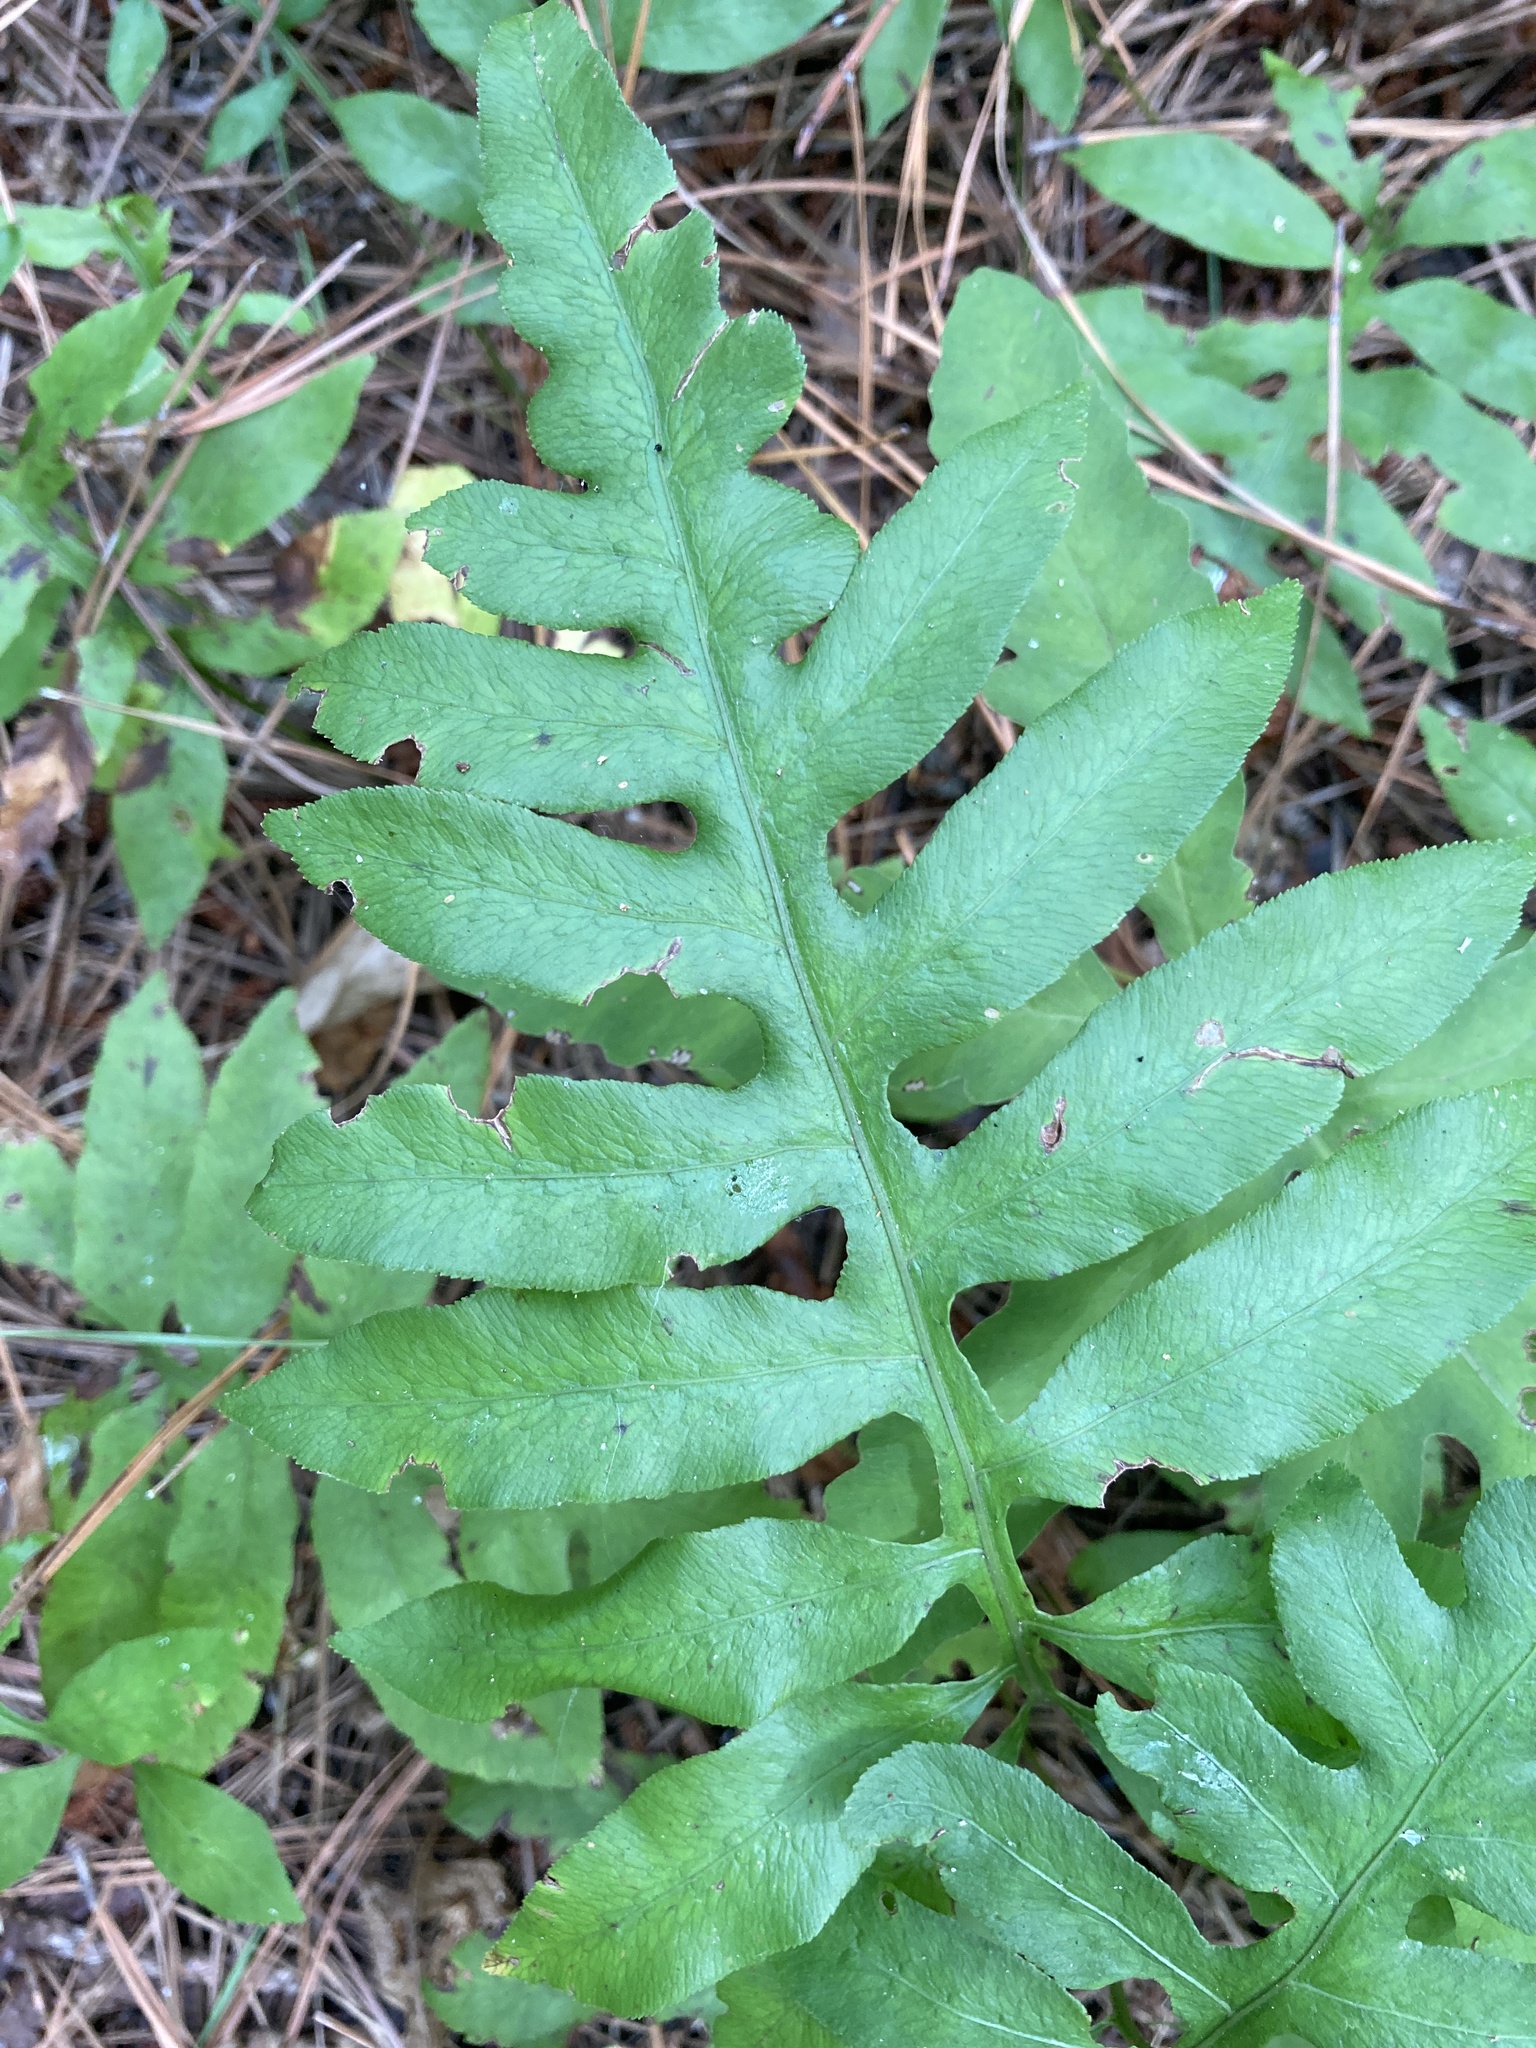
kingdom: Plantae
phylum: Tracheophyta
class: Polypodiopsida
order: Polypodiales
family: Blechnaceae
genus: Lorinseria
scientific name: Lorinseria areolata
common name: Dwarf chain fern
